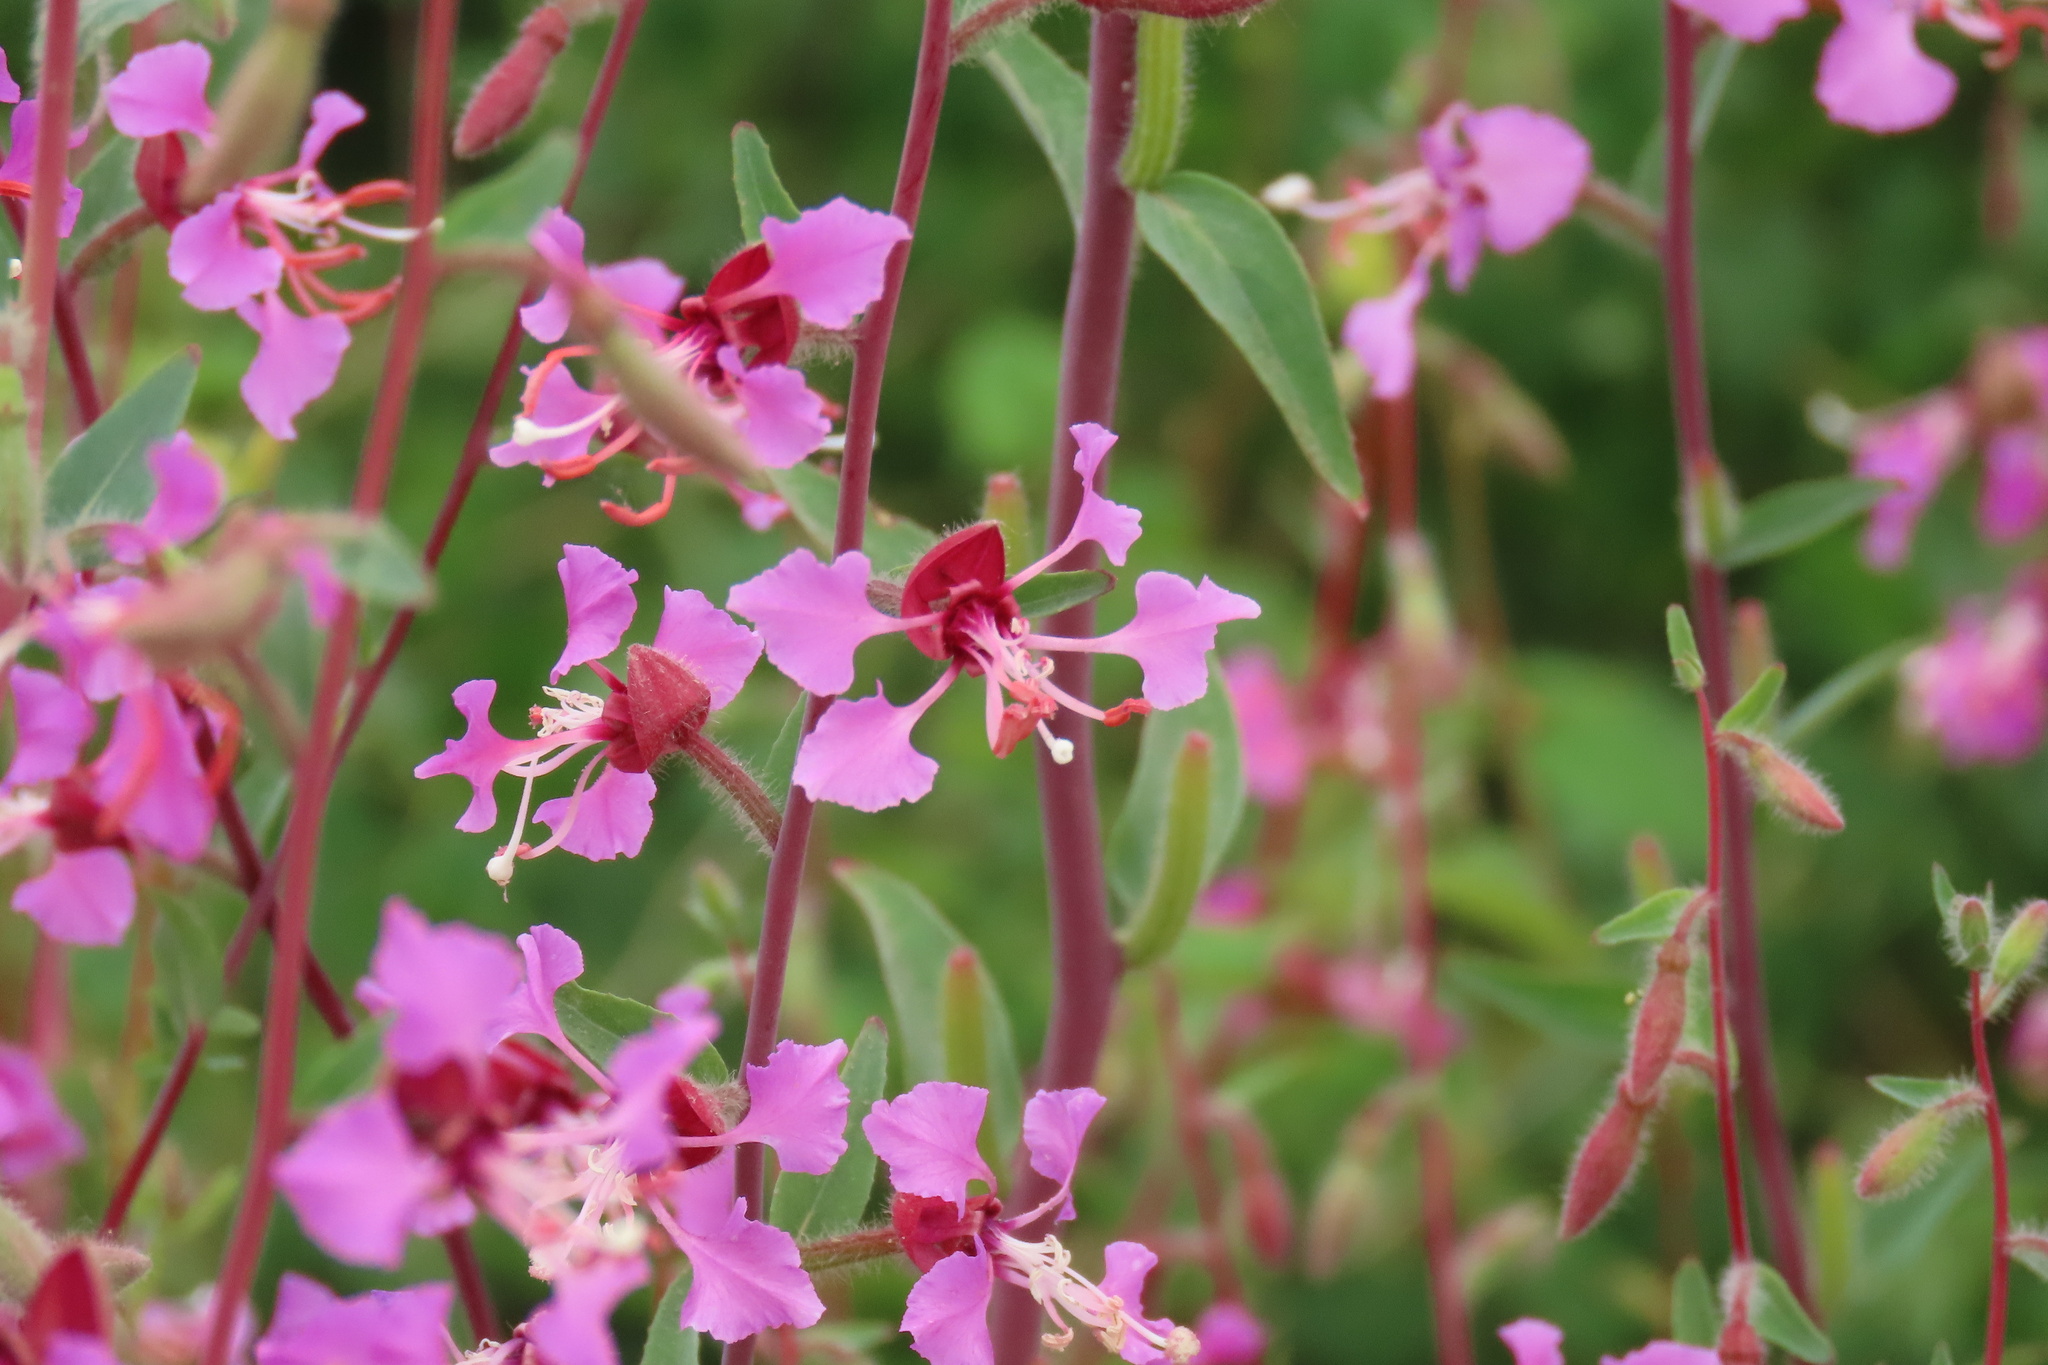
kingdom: Plantae
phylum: Tracheophyta
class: Magnoliopsida
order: Myrtales
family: Onagraceae
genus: Clarkia
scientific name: Clarkia unguiculata
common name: Clarkia
